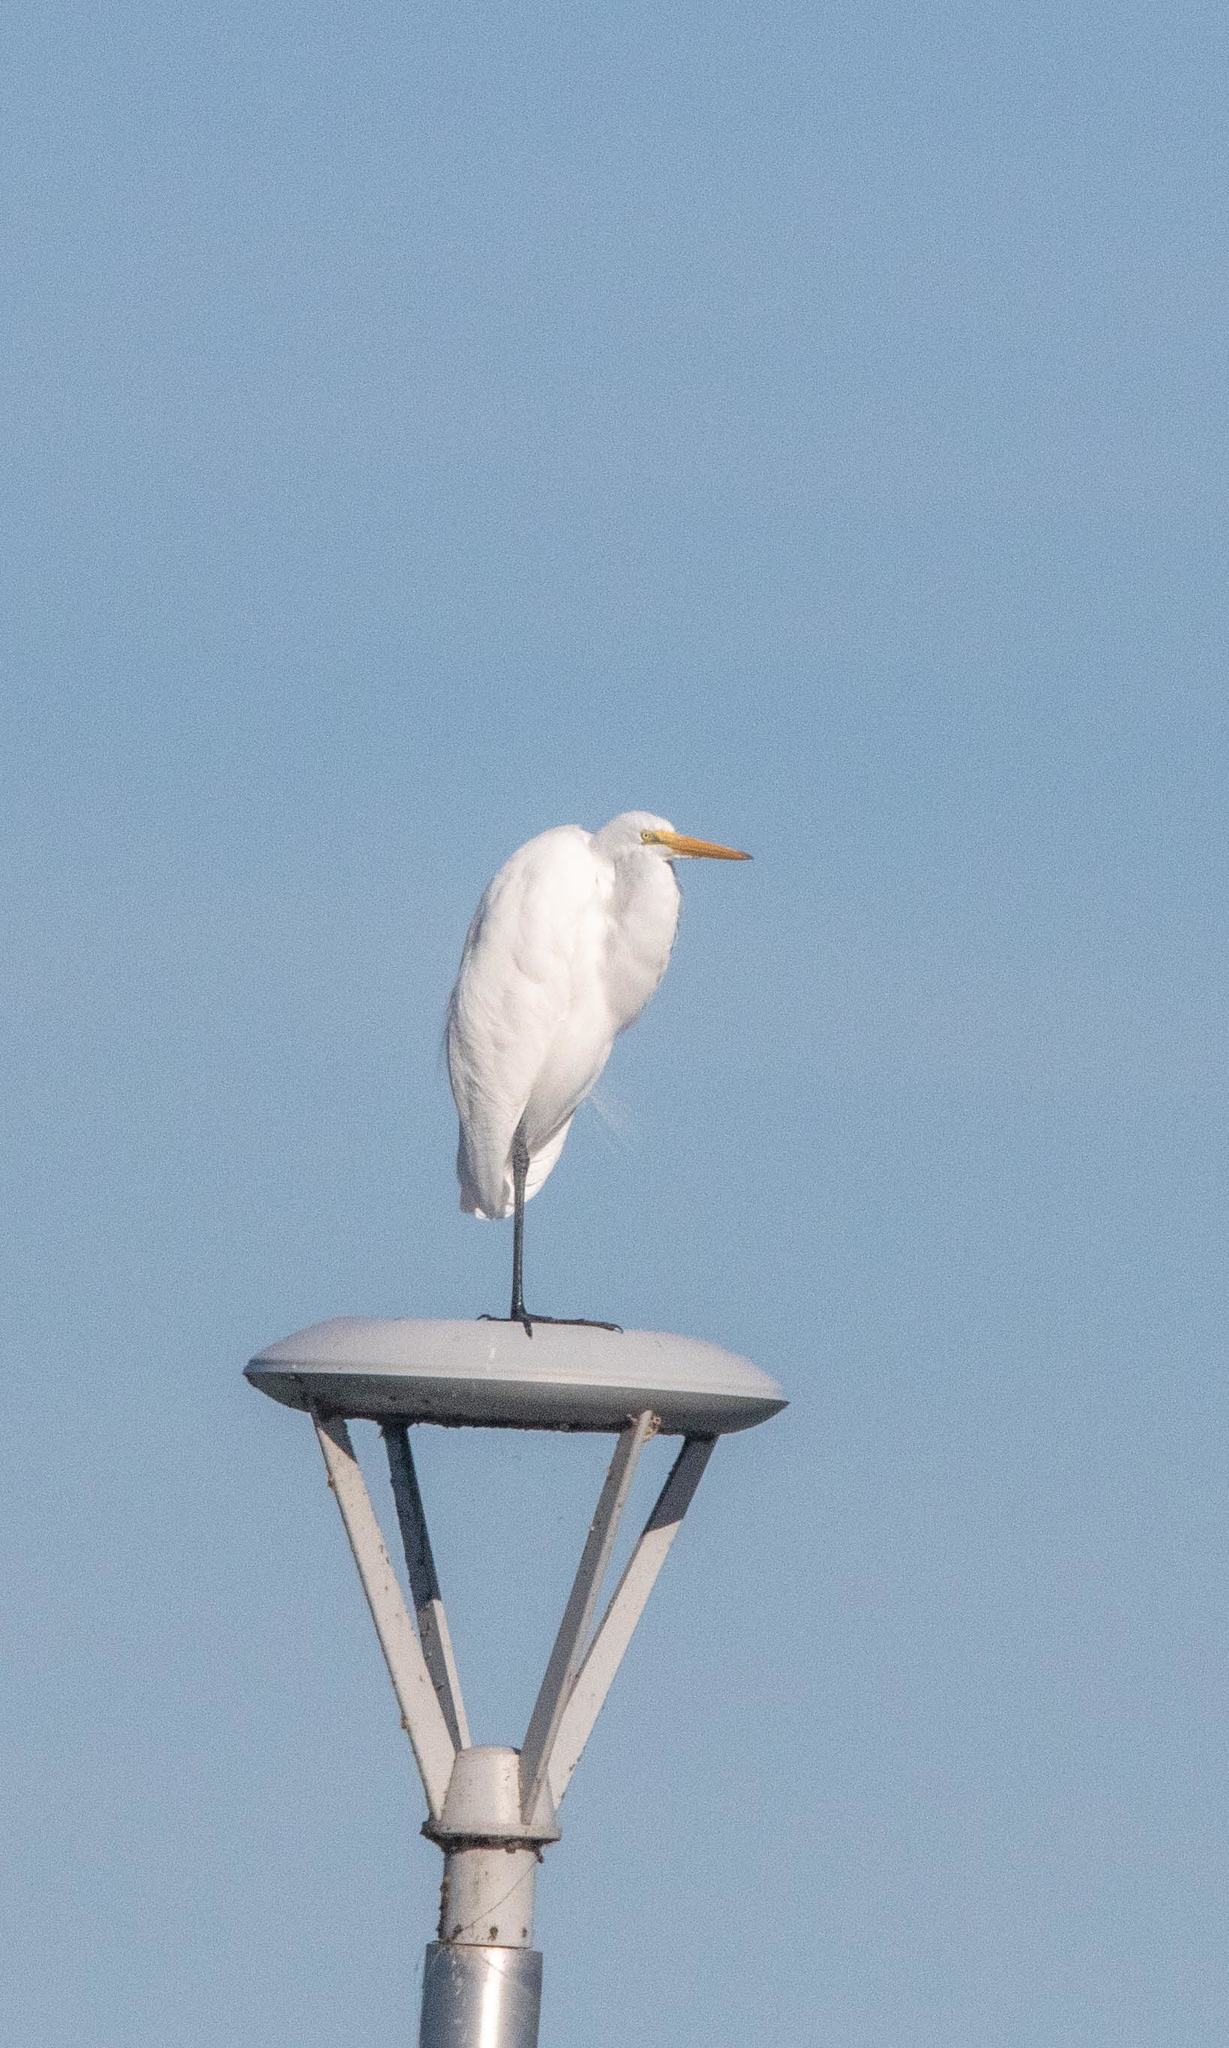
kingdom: Animalia
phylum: Chordata
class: Aves
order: Pelecaniformes
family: Ardeidae
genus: Ardea
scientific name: Ardea alba
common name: Great egret
